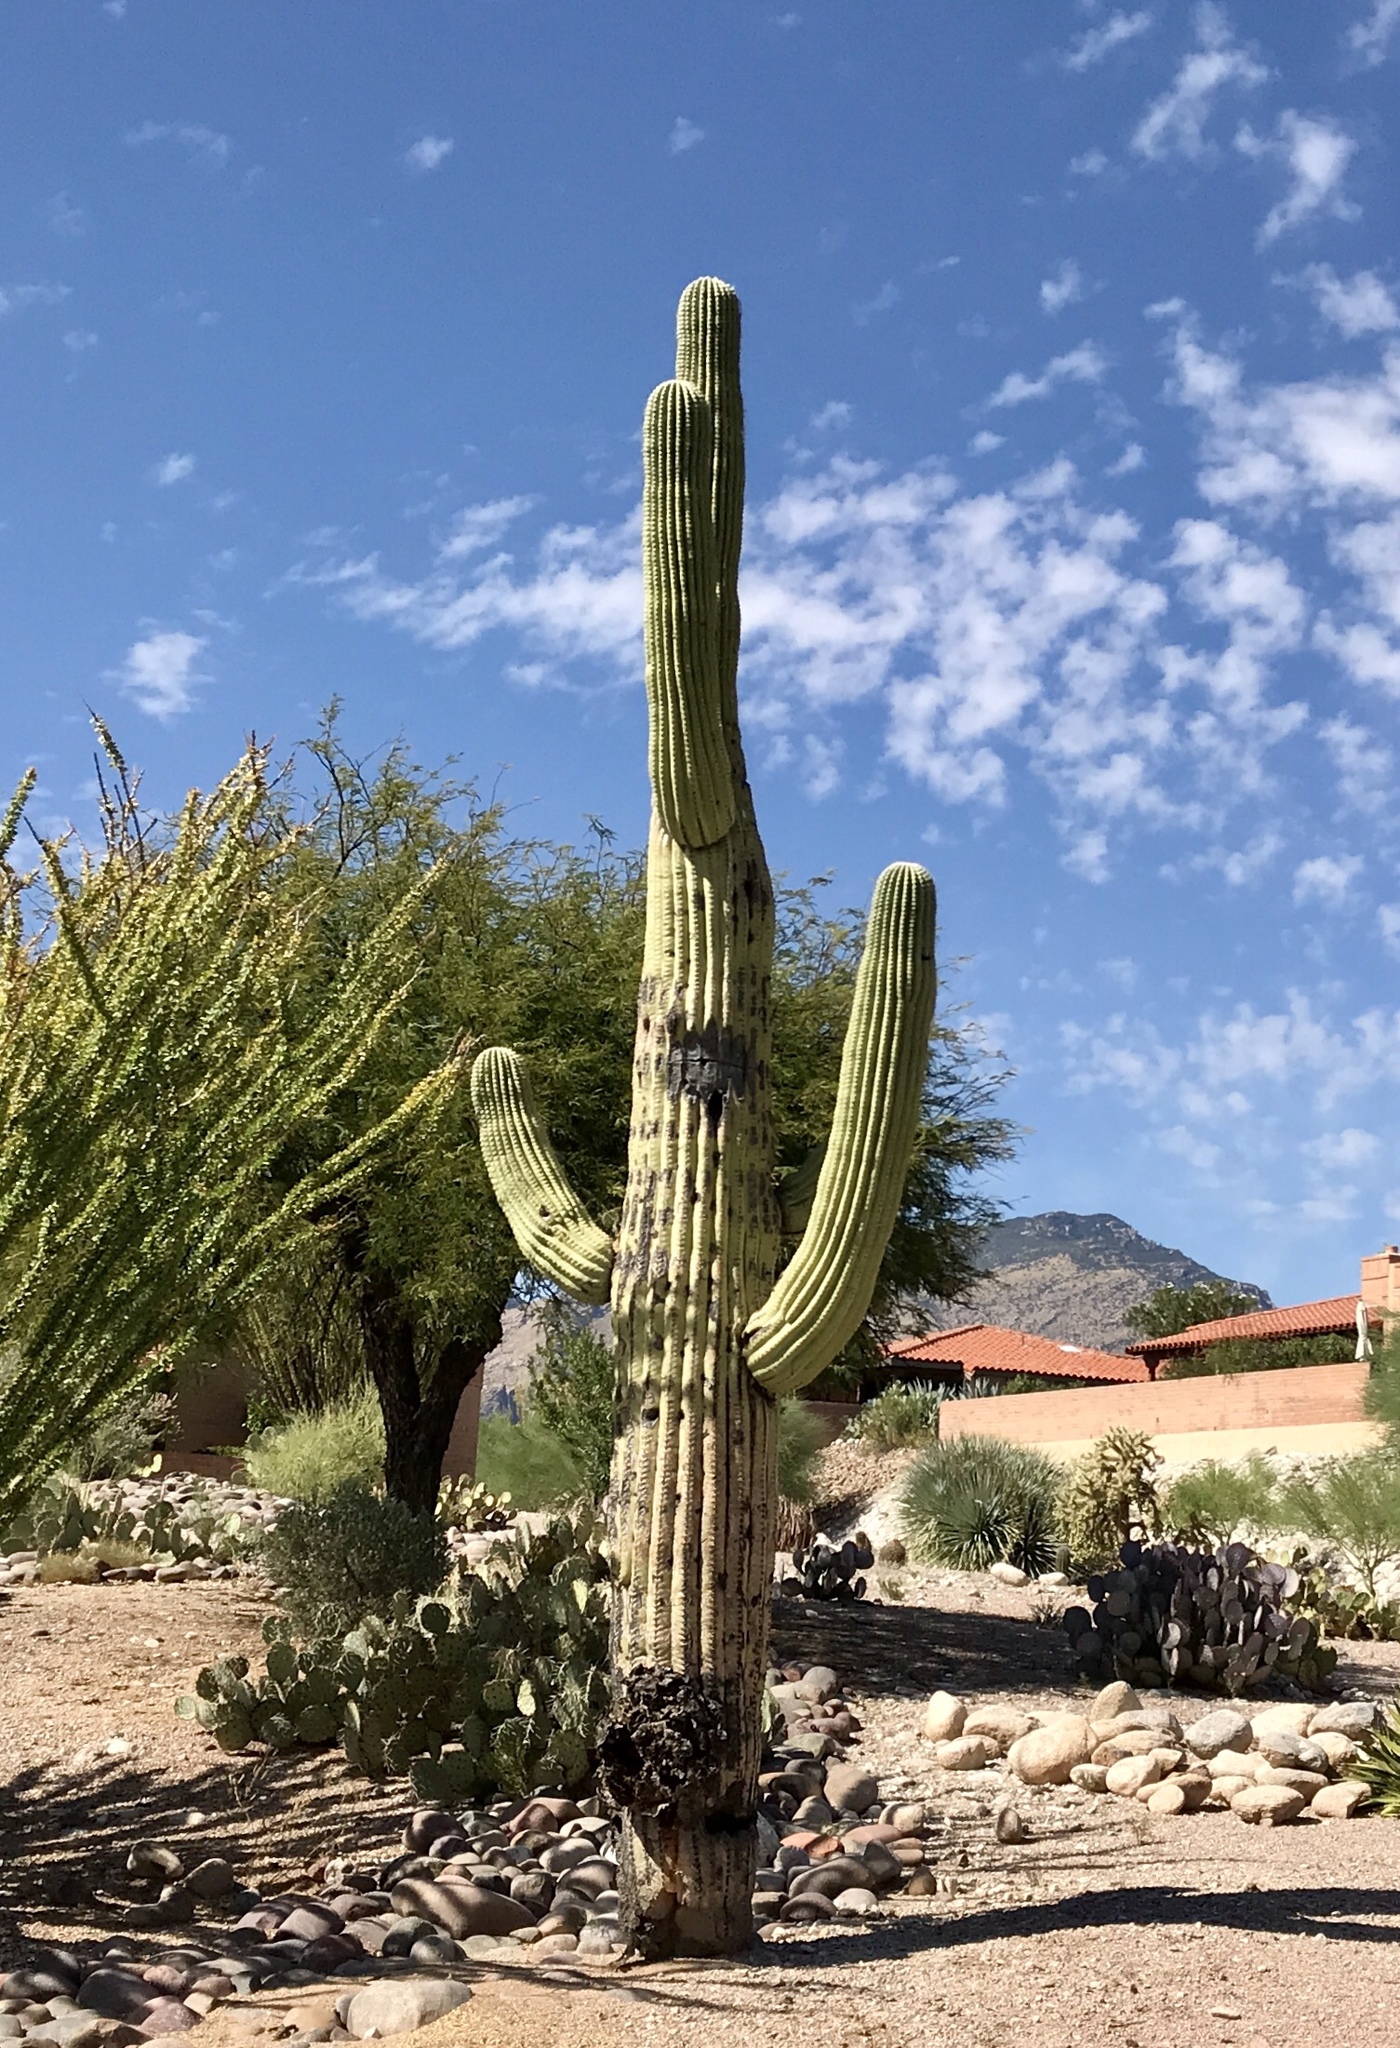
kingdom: Plantae
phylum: Tracheophyta
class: Magnoliopsida
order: Caryophyllales
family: Cactaceae
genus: Carnegiea
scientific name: Carnegiea gigantea
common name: Saguaro
